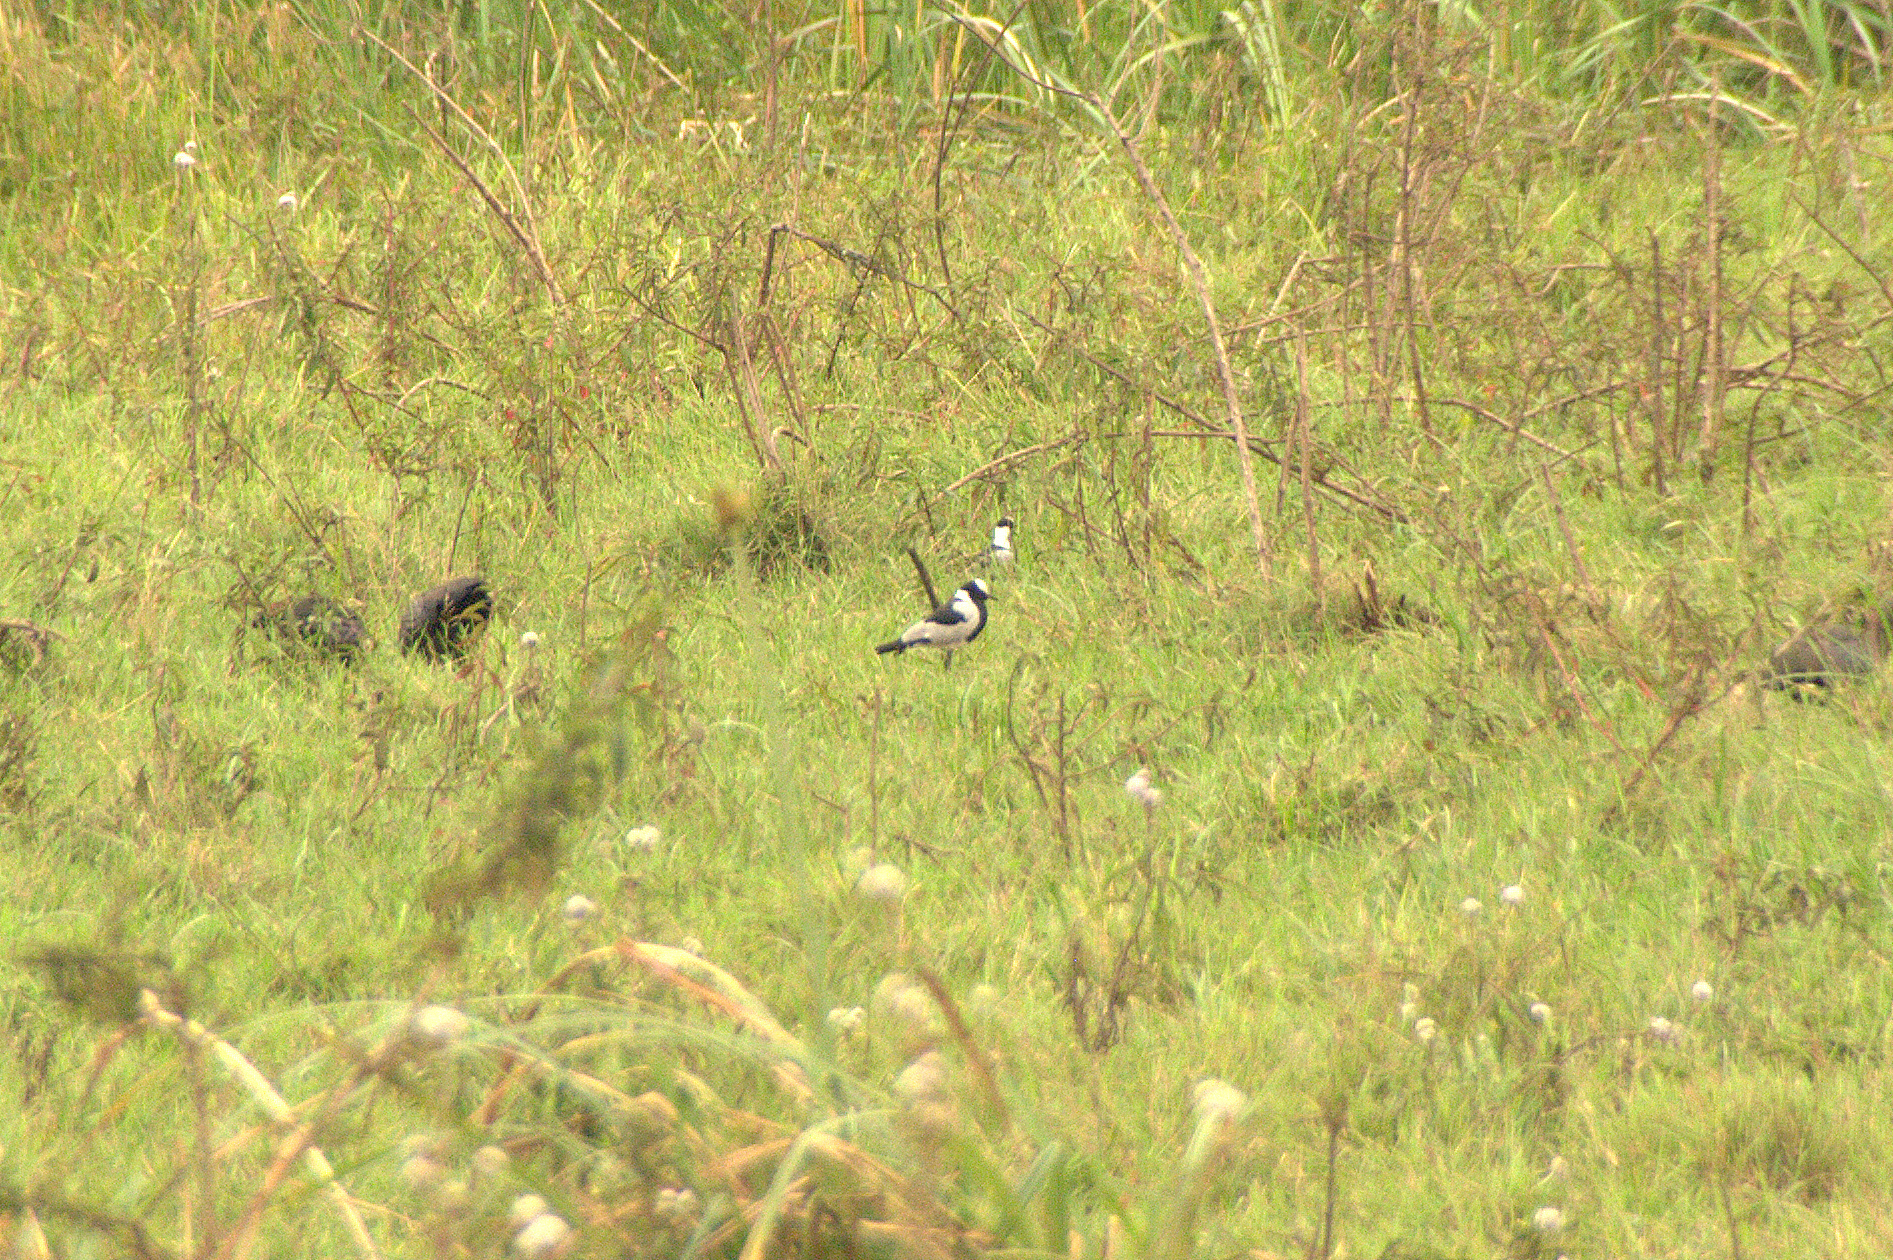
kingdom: Animalia
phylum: Chordata
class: Aves
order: Charadriiformes
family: Charadriidae
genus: Vanellus
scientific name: Vanellus armatus
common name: Blacksmith lapwing
